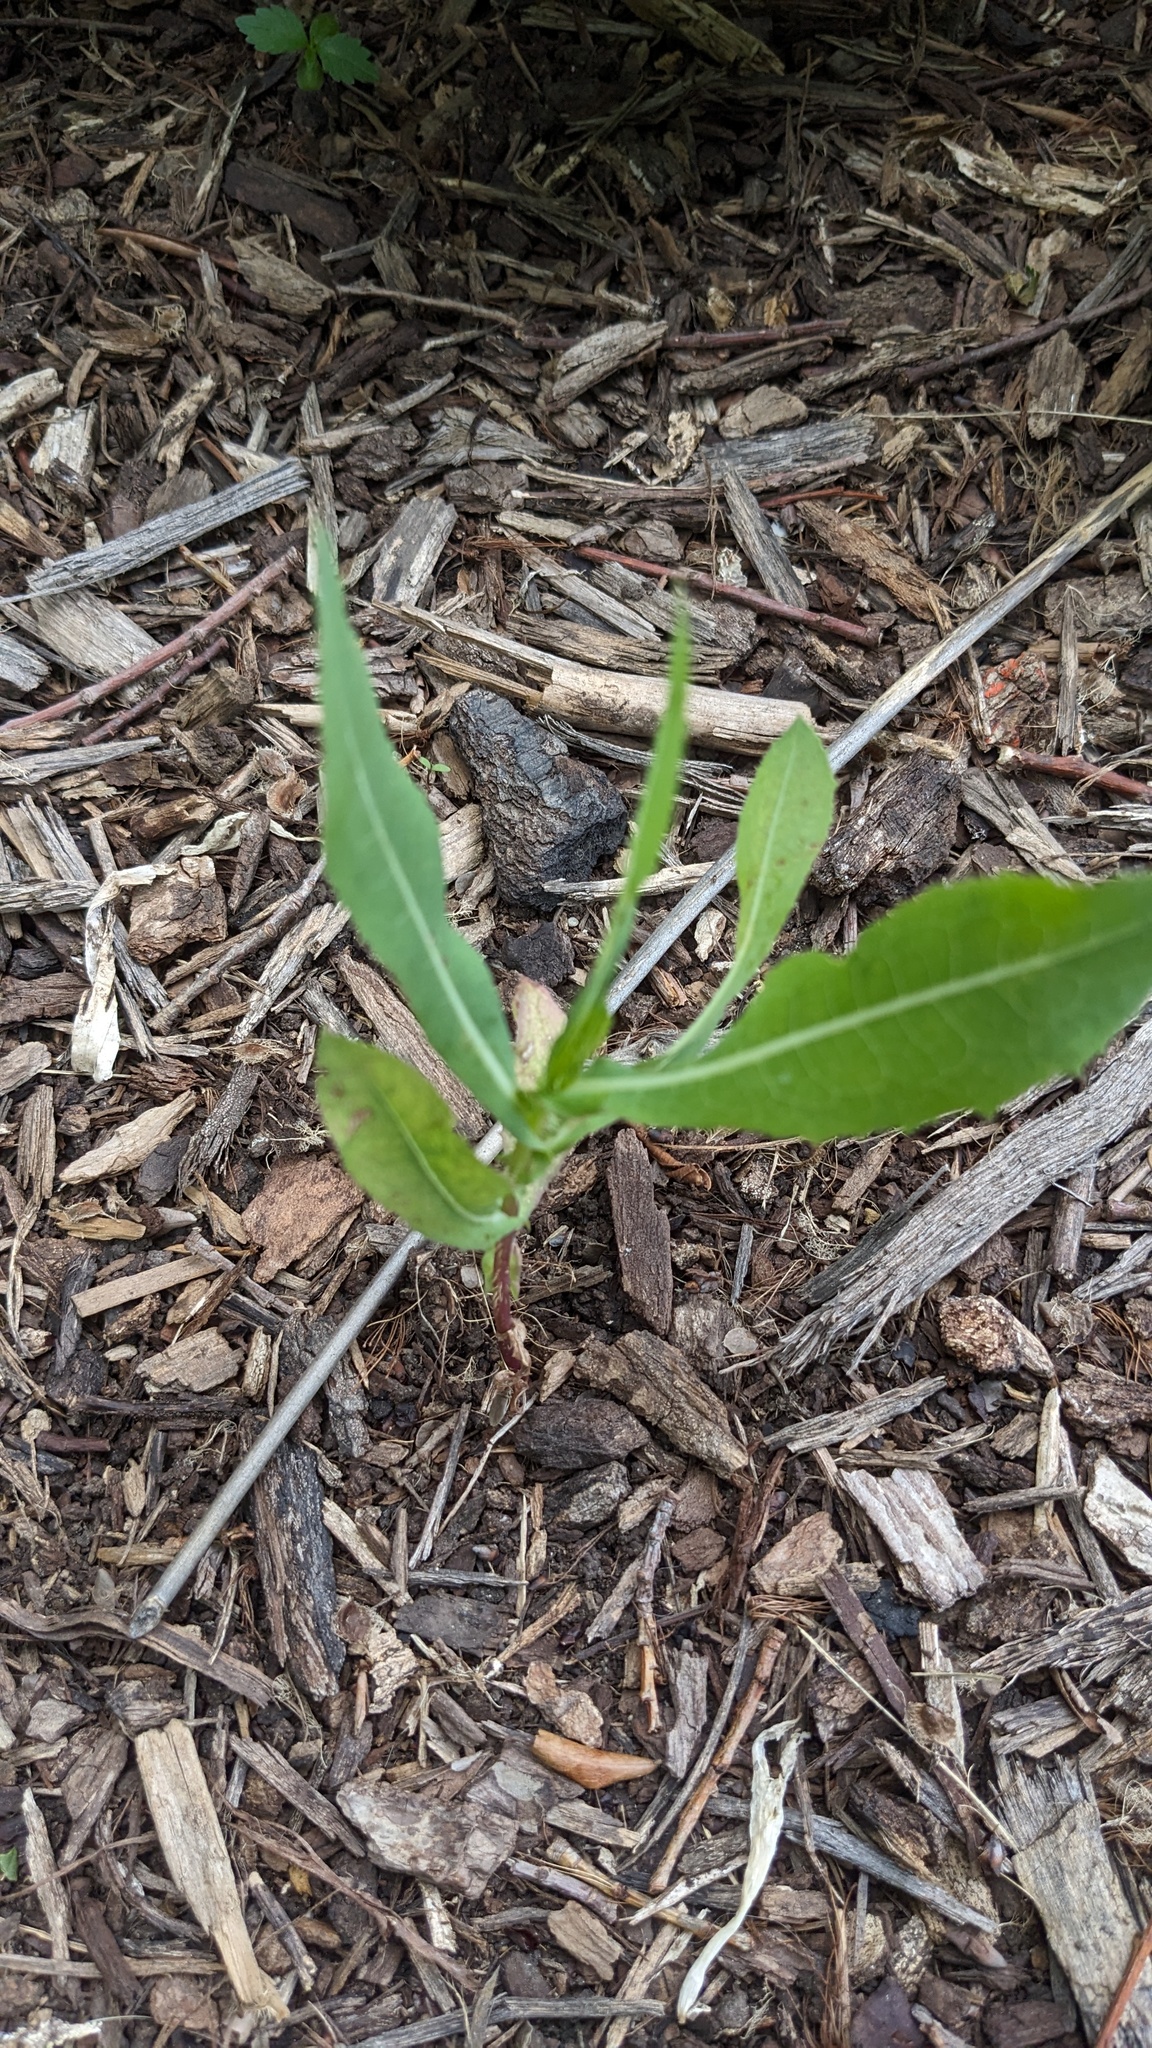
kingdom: Plantae
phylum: Tracheophyta
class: Magnoliopsida
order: Asterales
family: Asteraceae
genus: Lactuca
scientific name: Lactuca serriola
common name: Prickly lettuce
